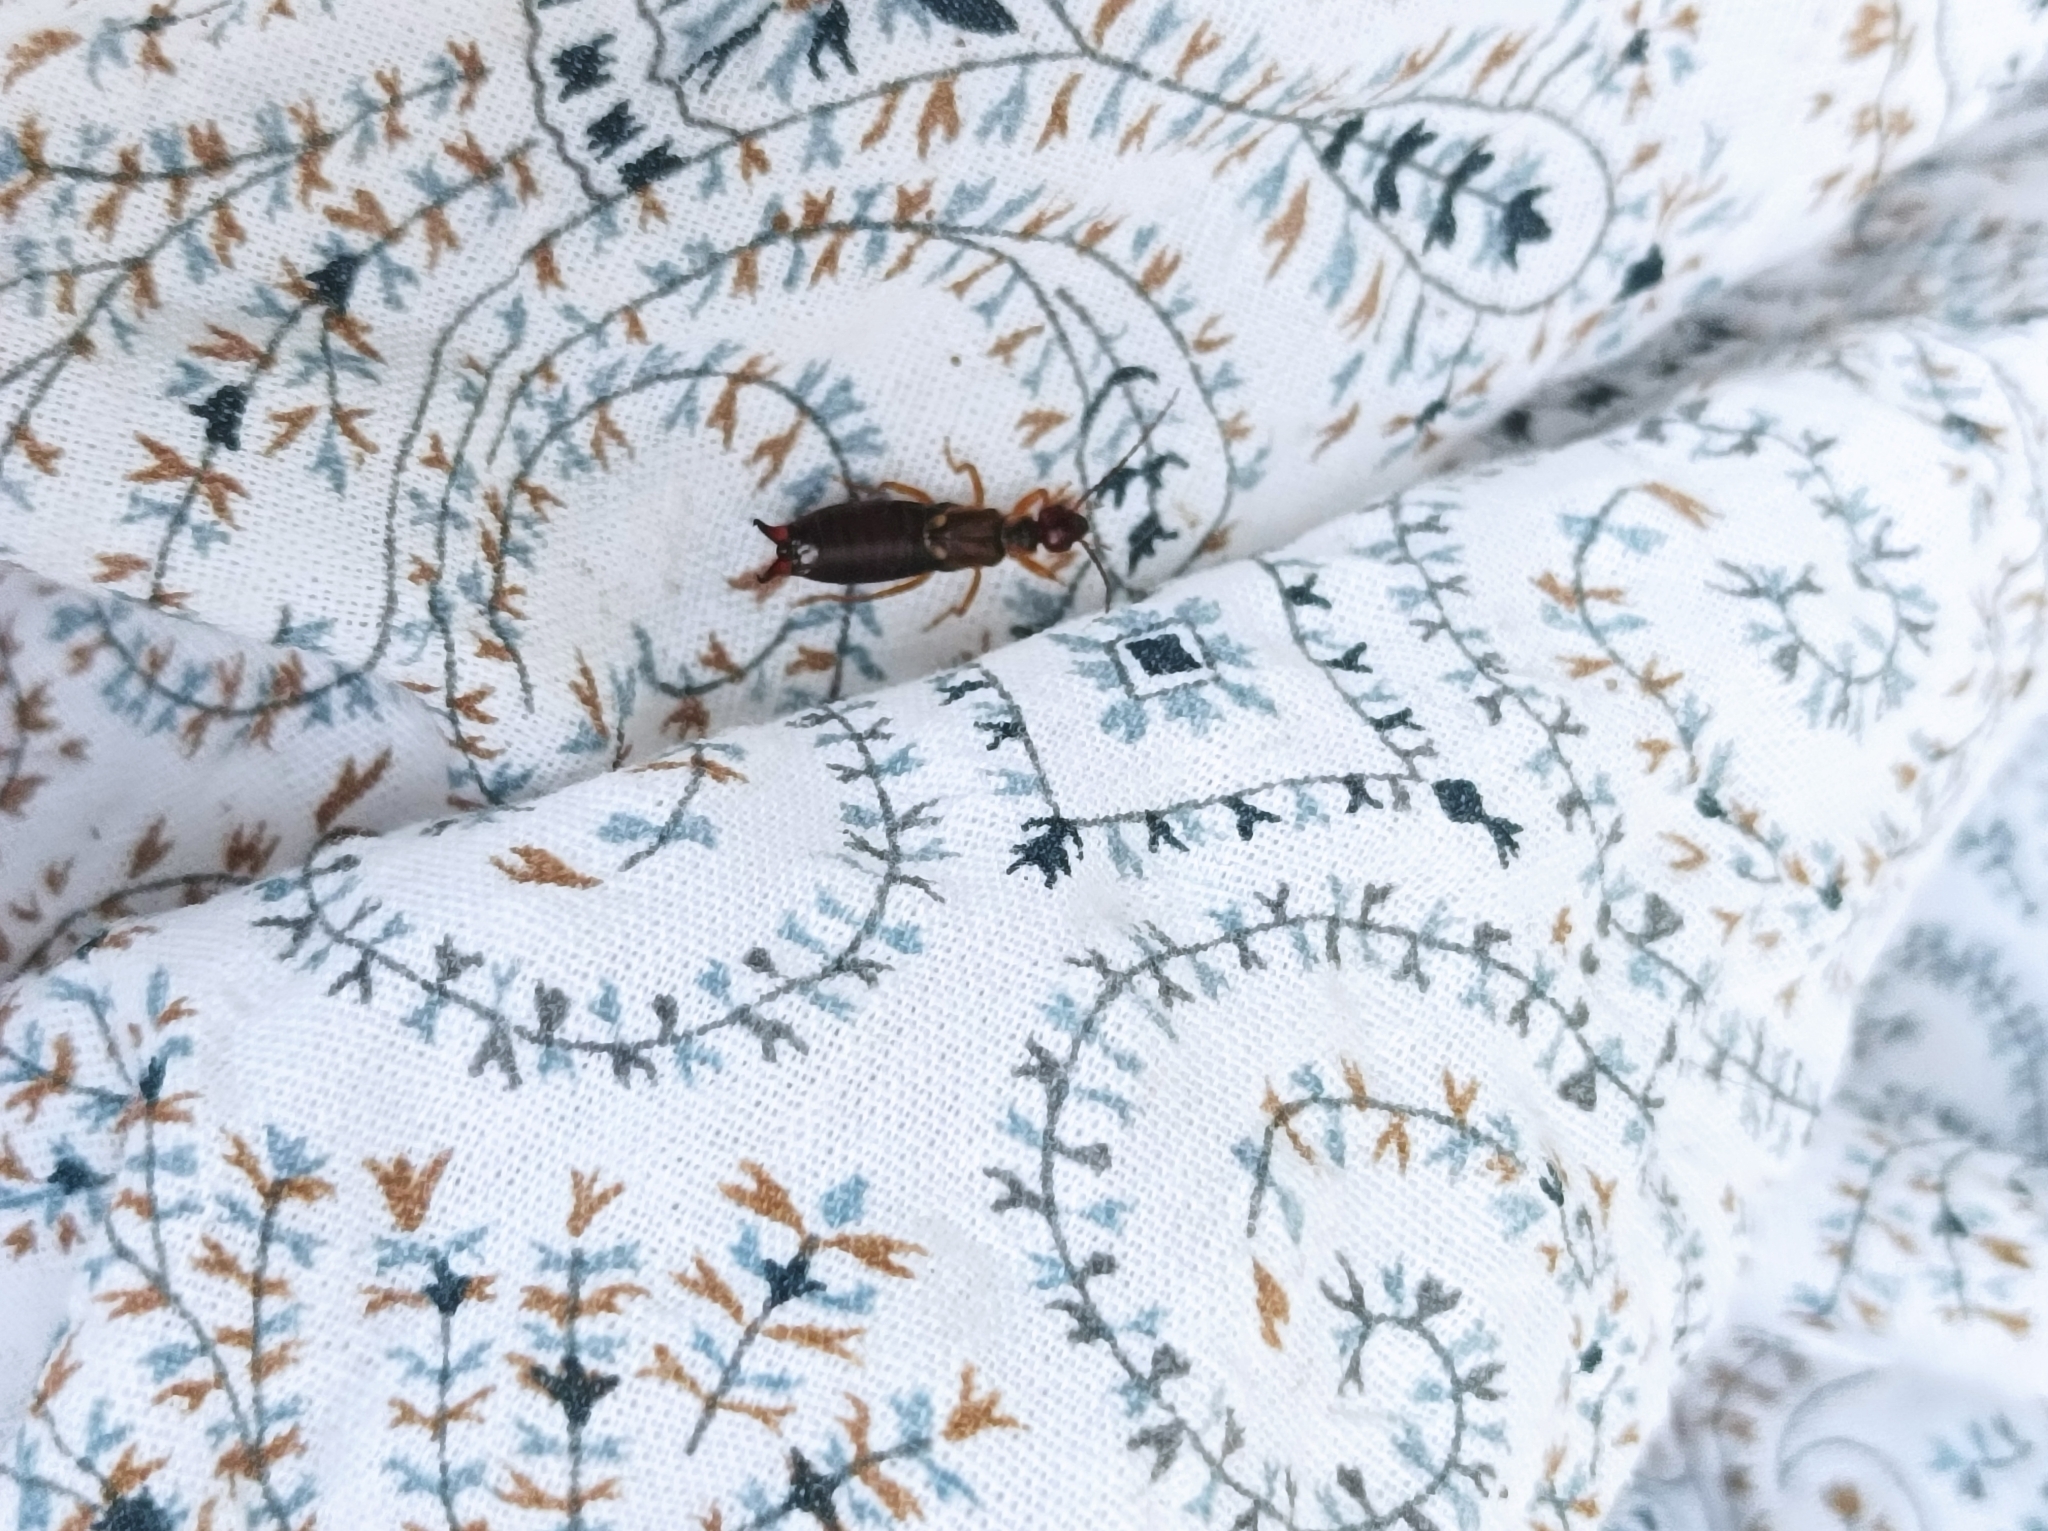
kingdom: Animalia
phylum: Arthropoda
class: Insecta
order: Dermaptera
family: Forficulidae
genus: Forficula
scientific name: Forficula
